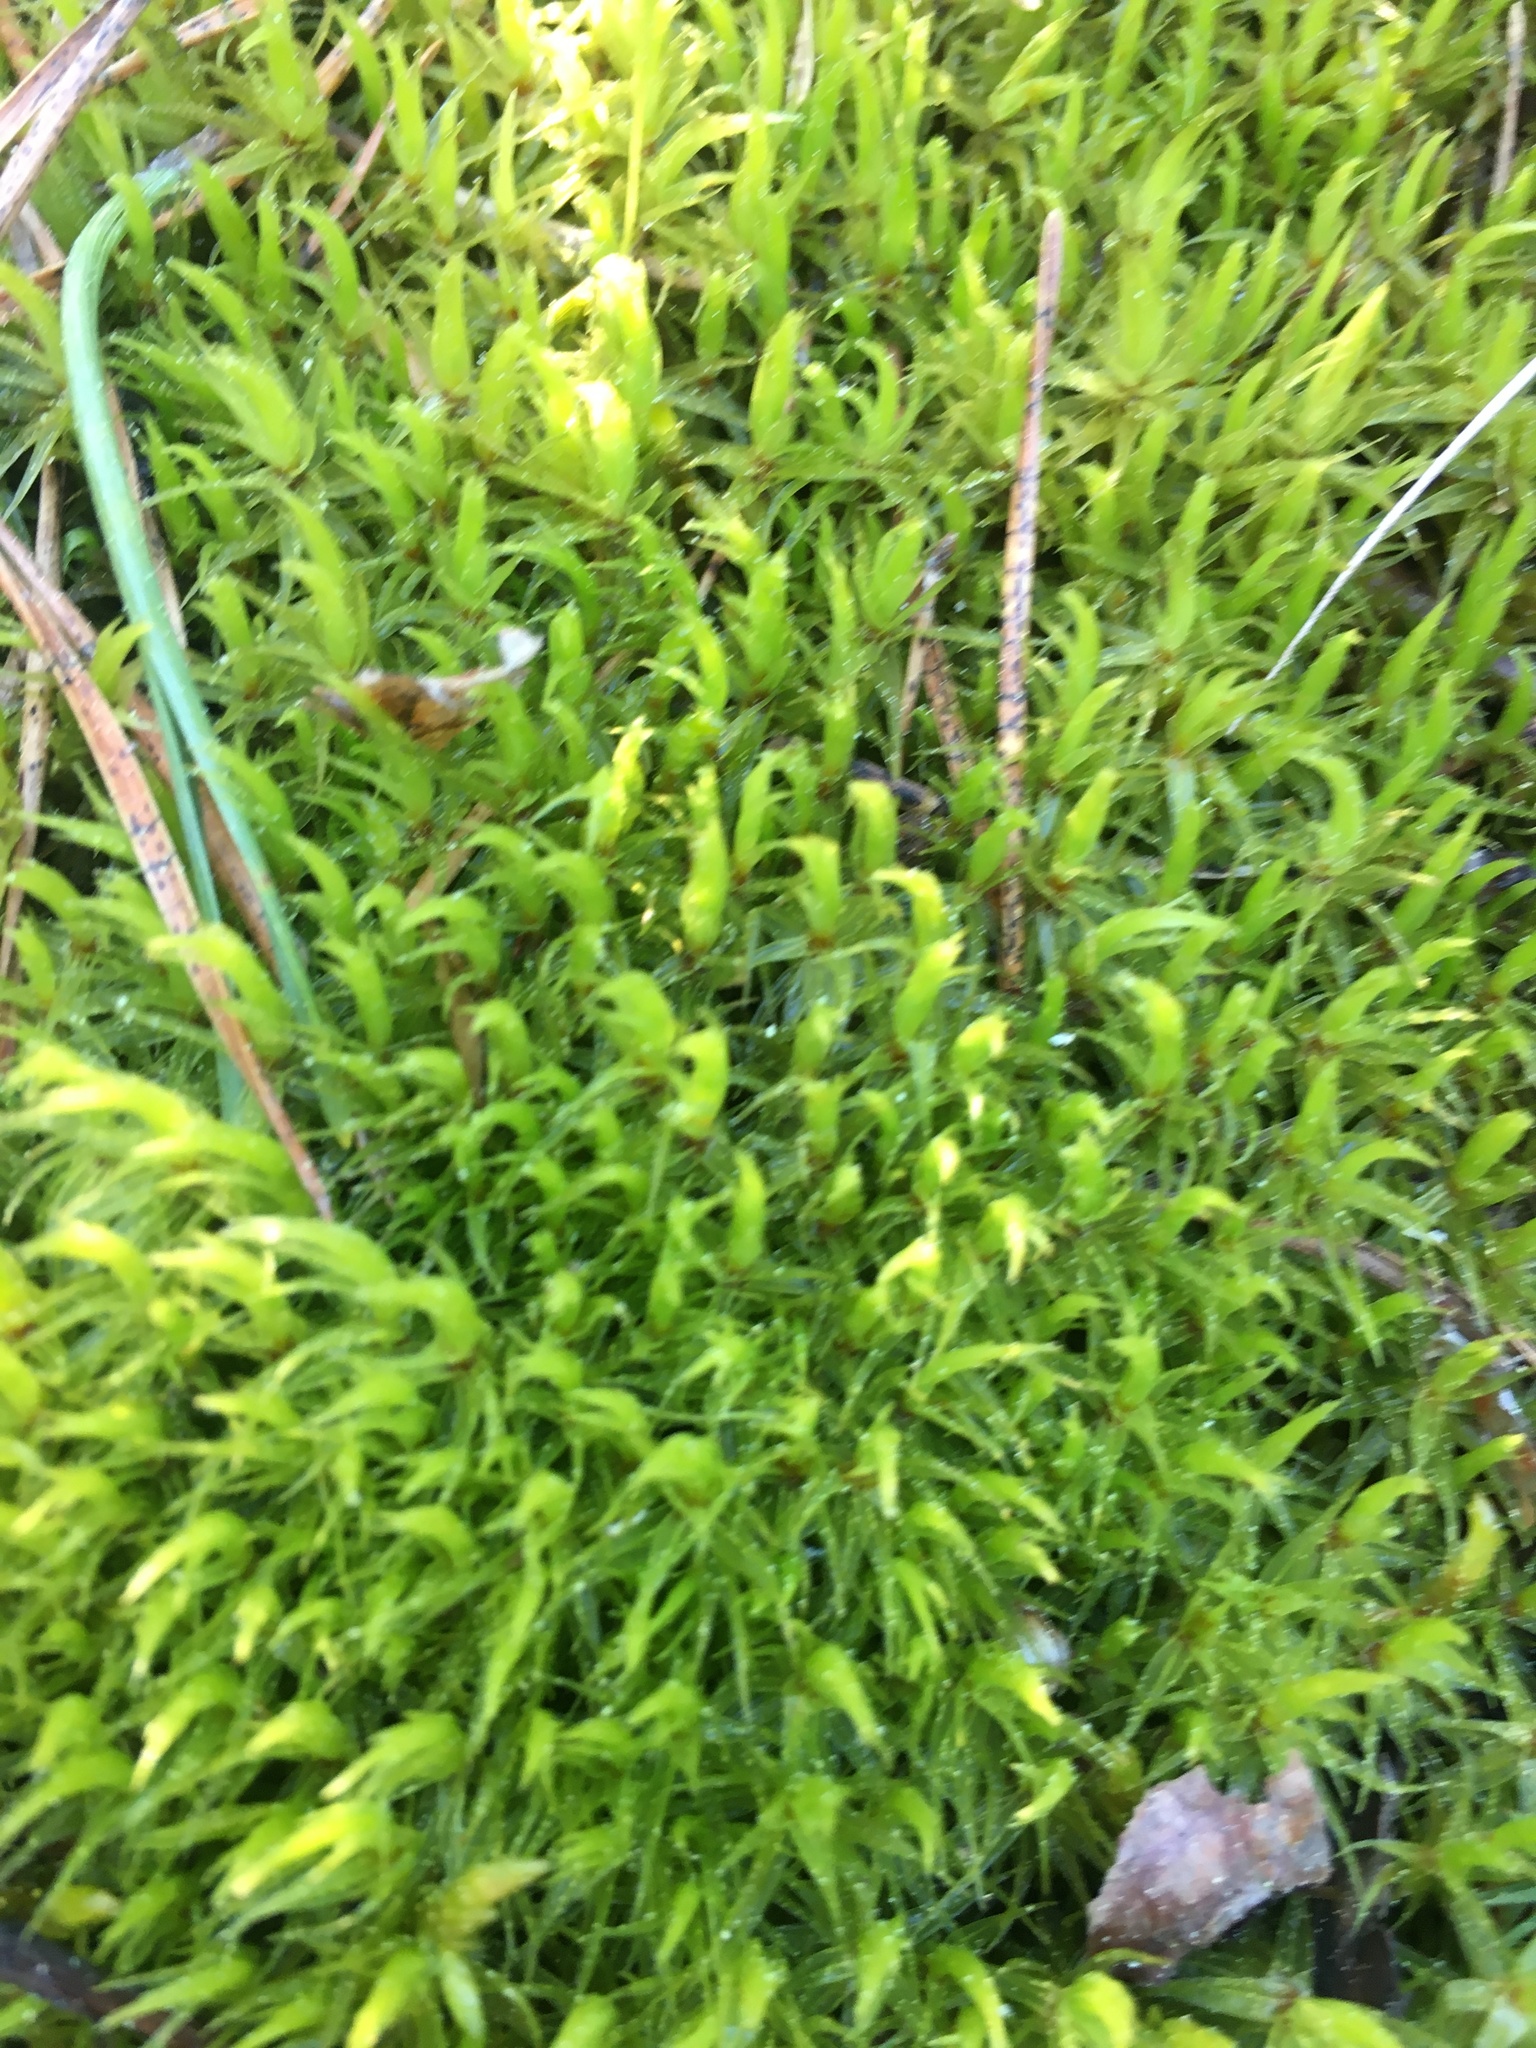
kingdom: Plantae
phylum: Bryophyta
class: Bryopsida
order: Dicranales
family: Dicranaceae
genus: Dicranum
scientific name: Dicranum scoparium
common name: Broom fork-moss
